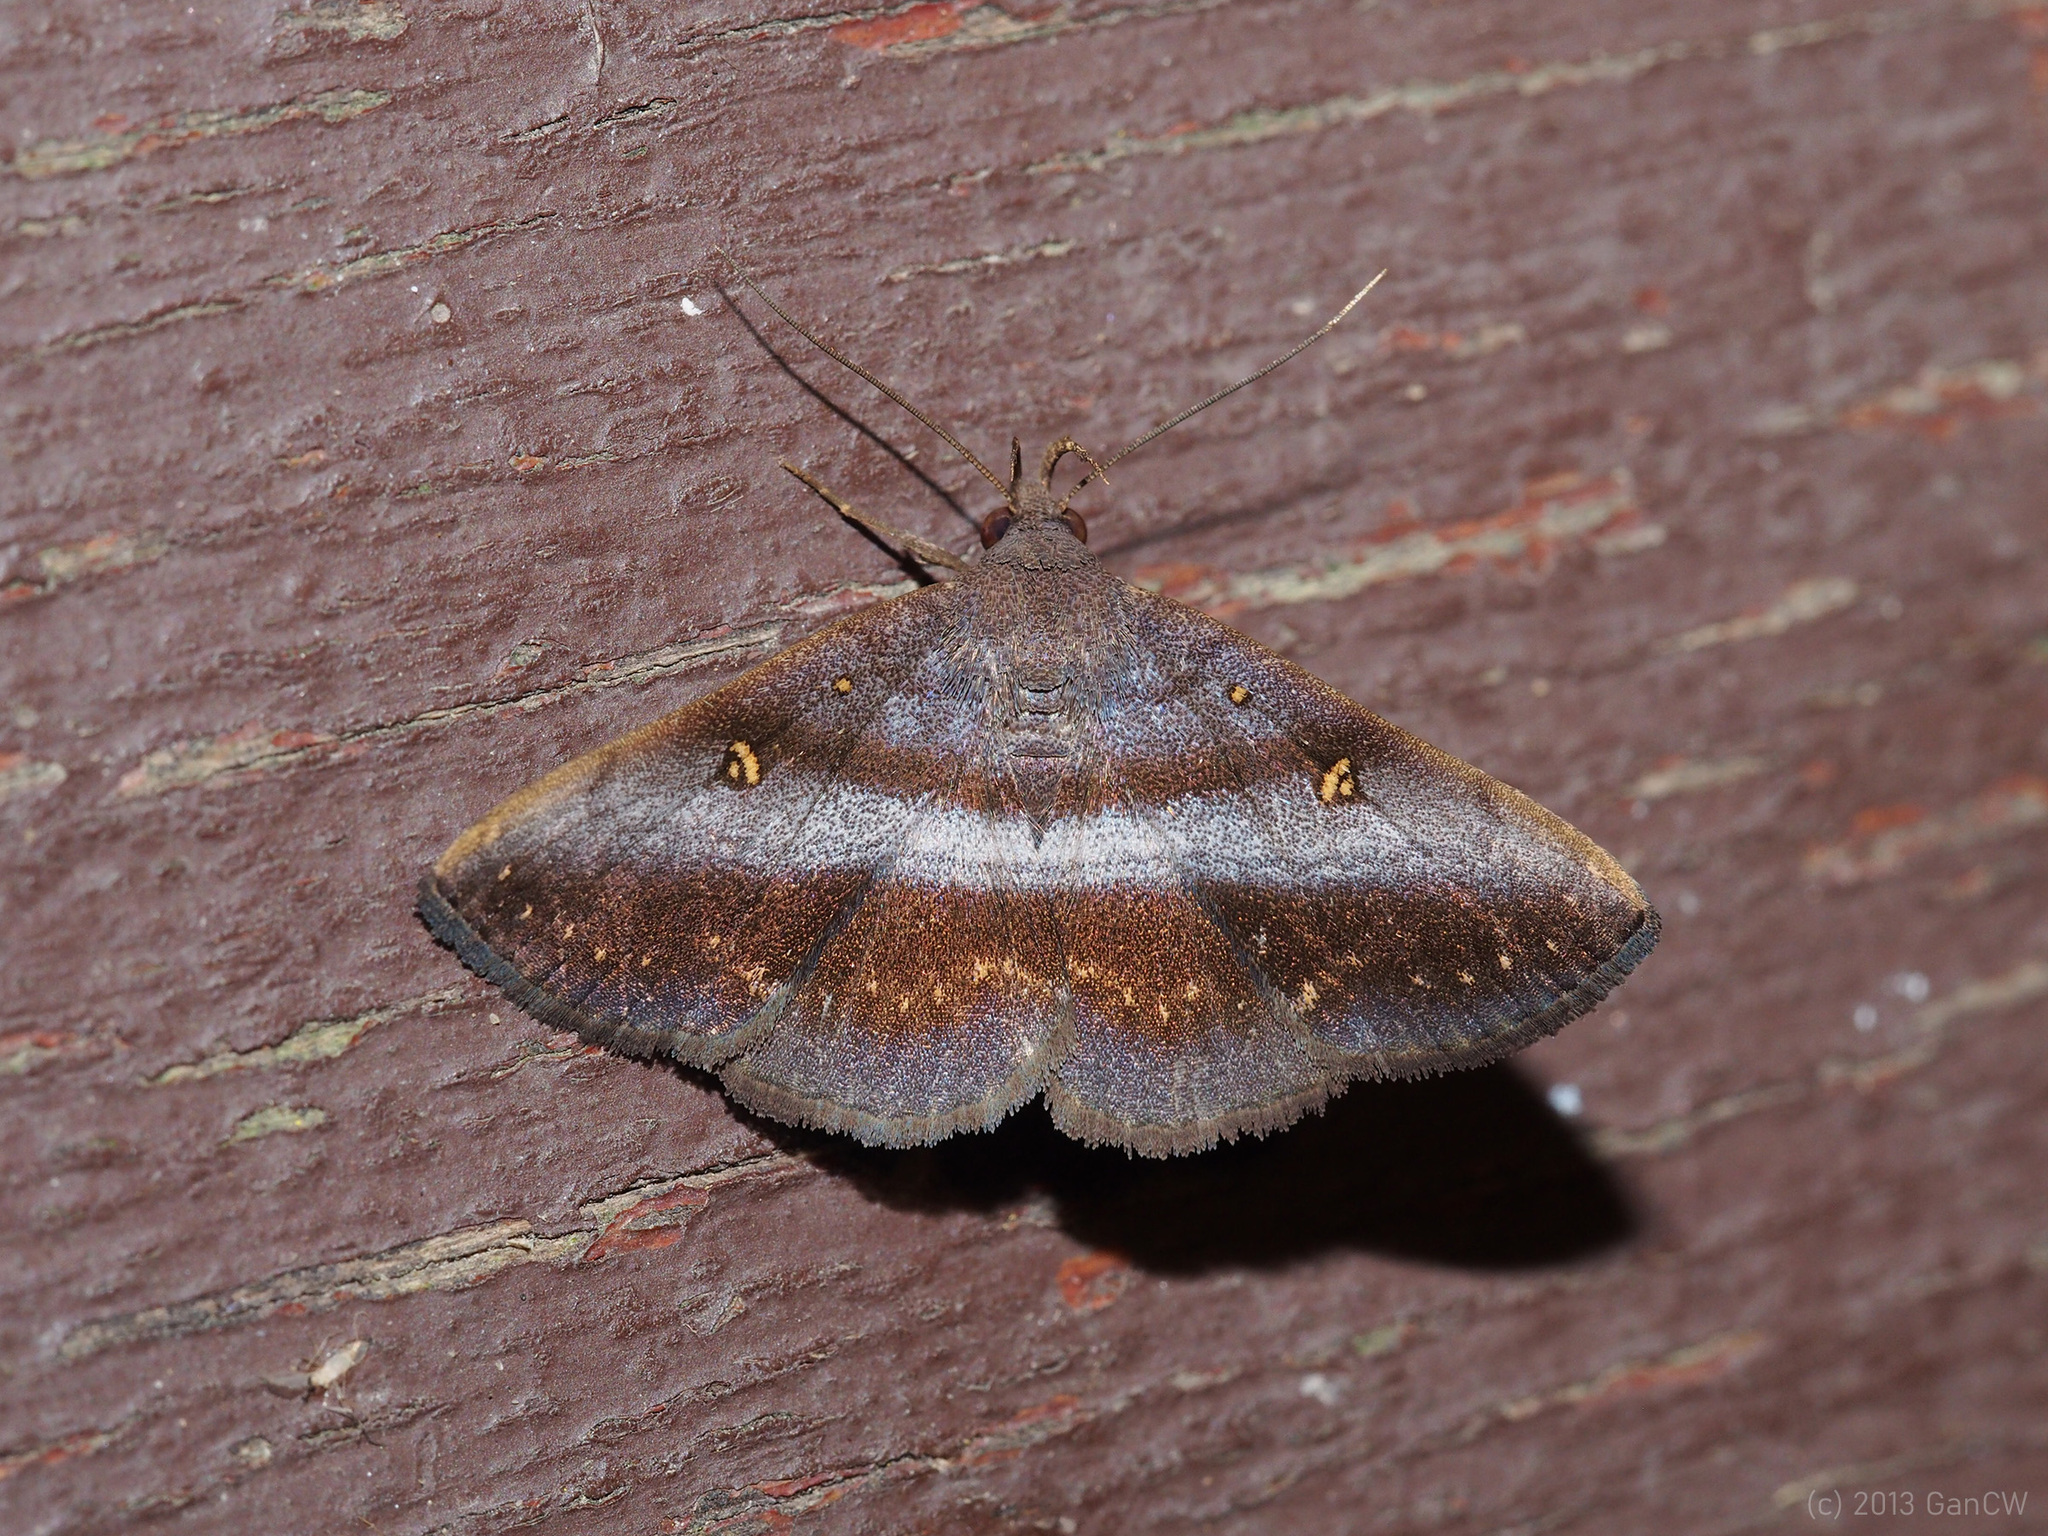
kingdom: Animalia
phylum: Arthropoda
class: Insecta
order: Lepidoptera
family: Erebidae
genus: Hadennia
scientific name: Hadennia hypenalis
